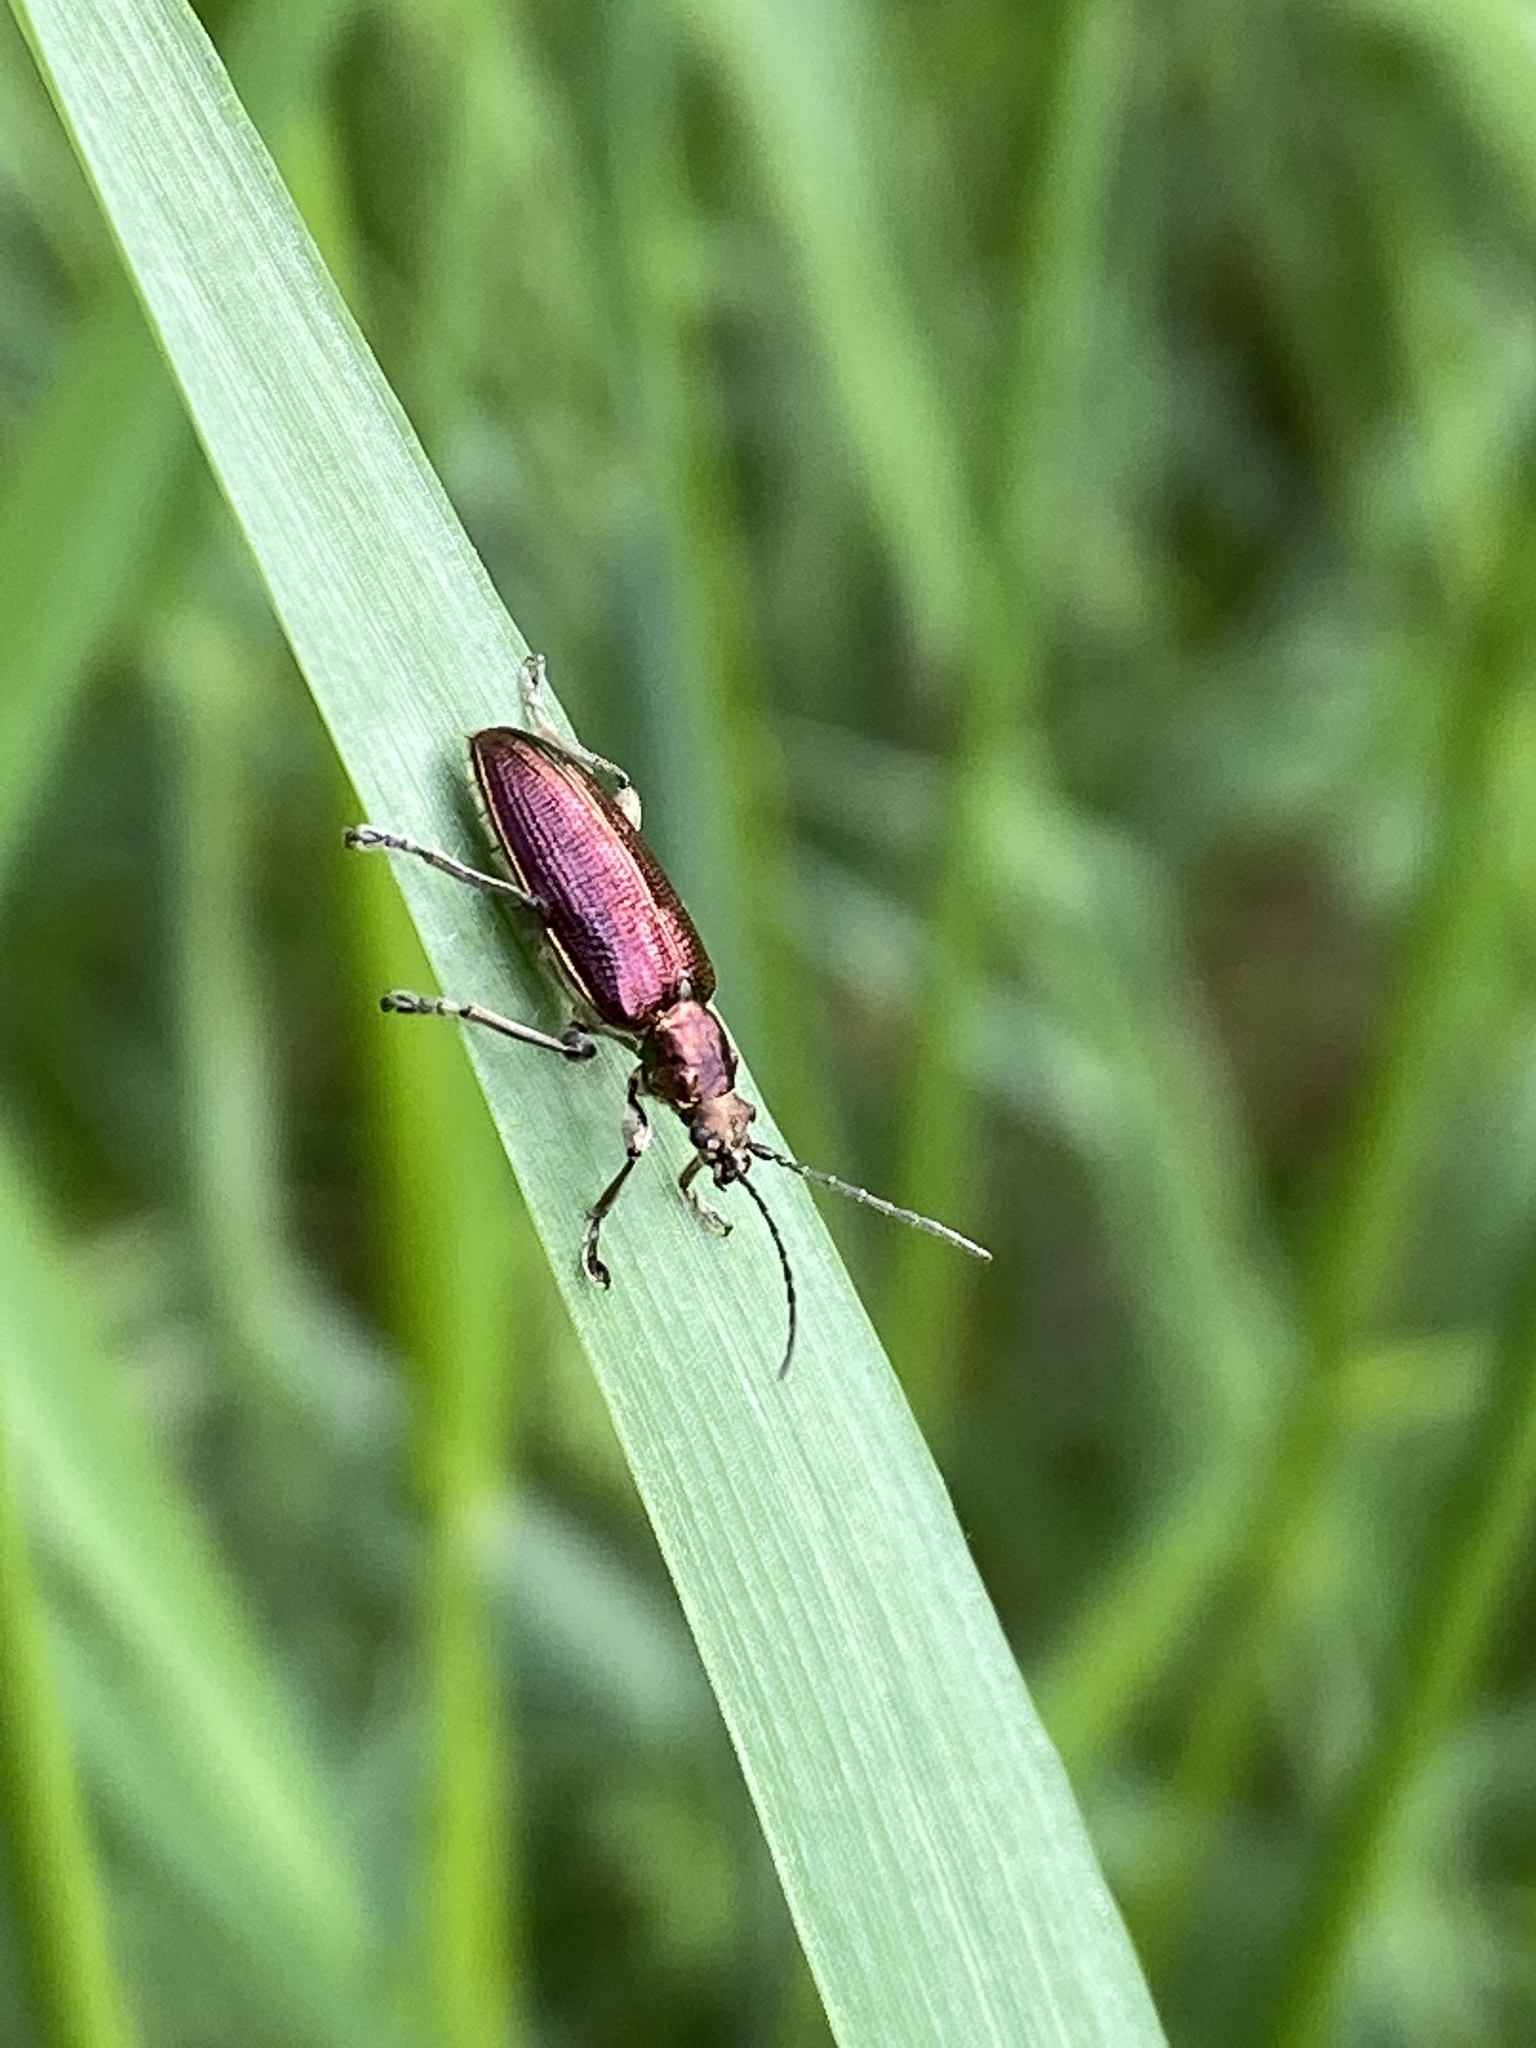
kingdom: Animalia
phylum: Arthropoda
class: Insecta
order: Coleoptera
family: Chrysomelidae
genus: Plateumaris
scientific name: Plateumaris sericea
